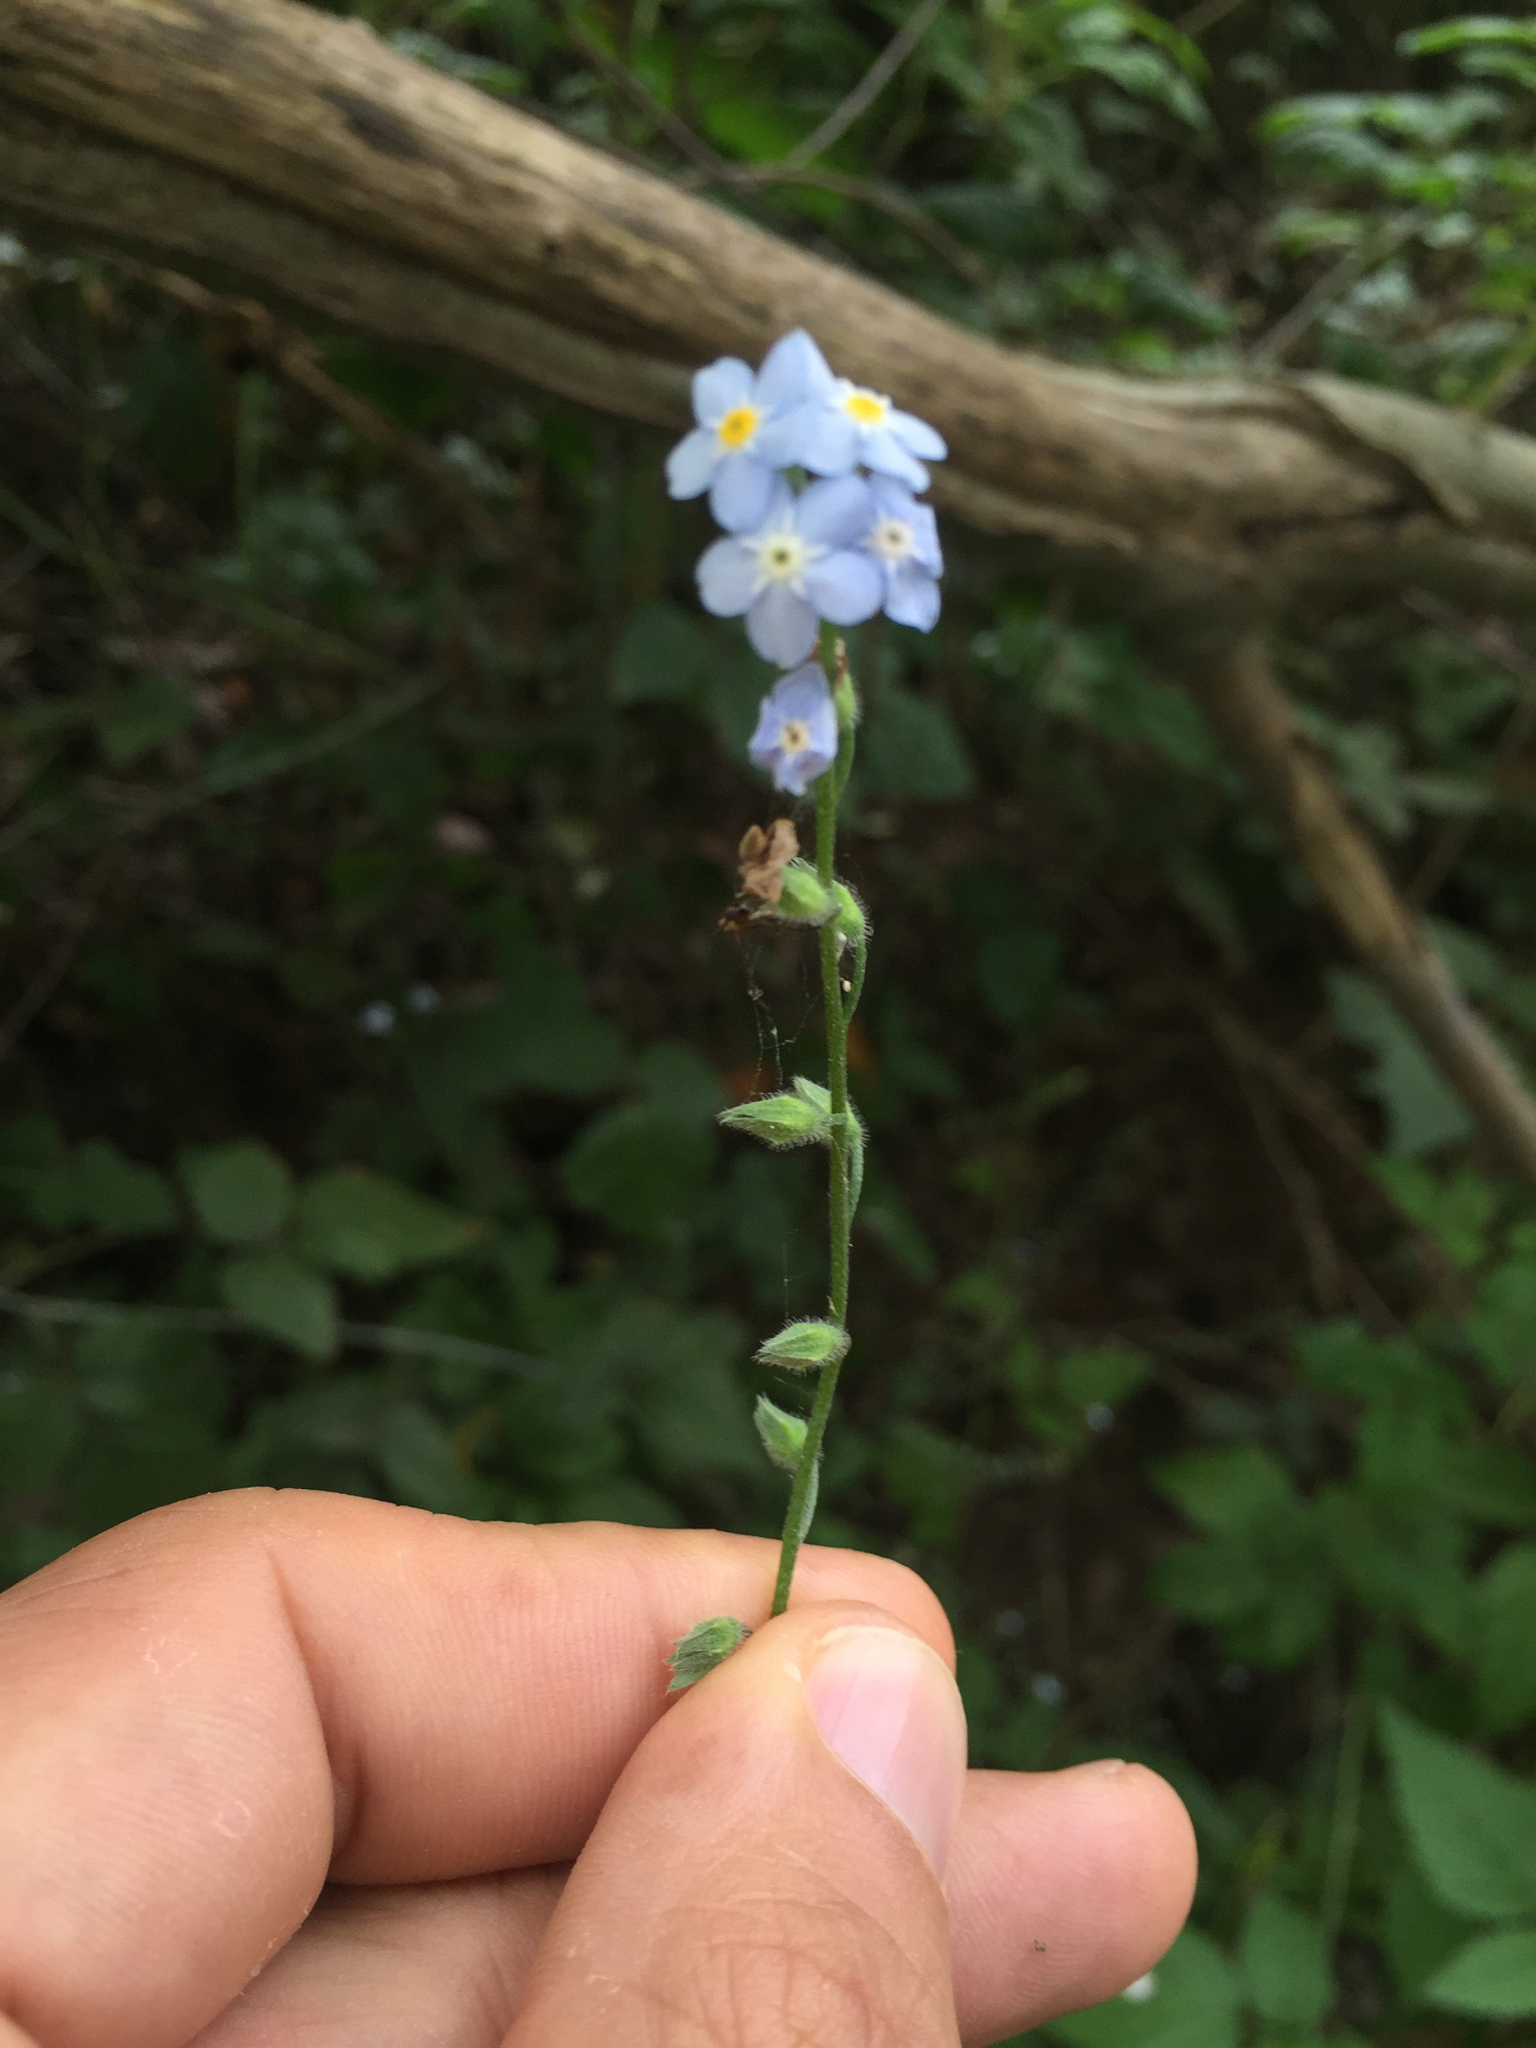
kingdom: Plantae
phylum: Tracheophyta
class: Magnoliopsida
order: Boraginales
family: Boraginaceae
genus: Myosotis
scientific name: Myosotis latifolia
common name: Broadleaf forget-me-not
